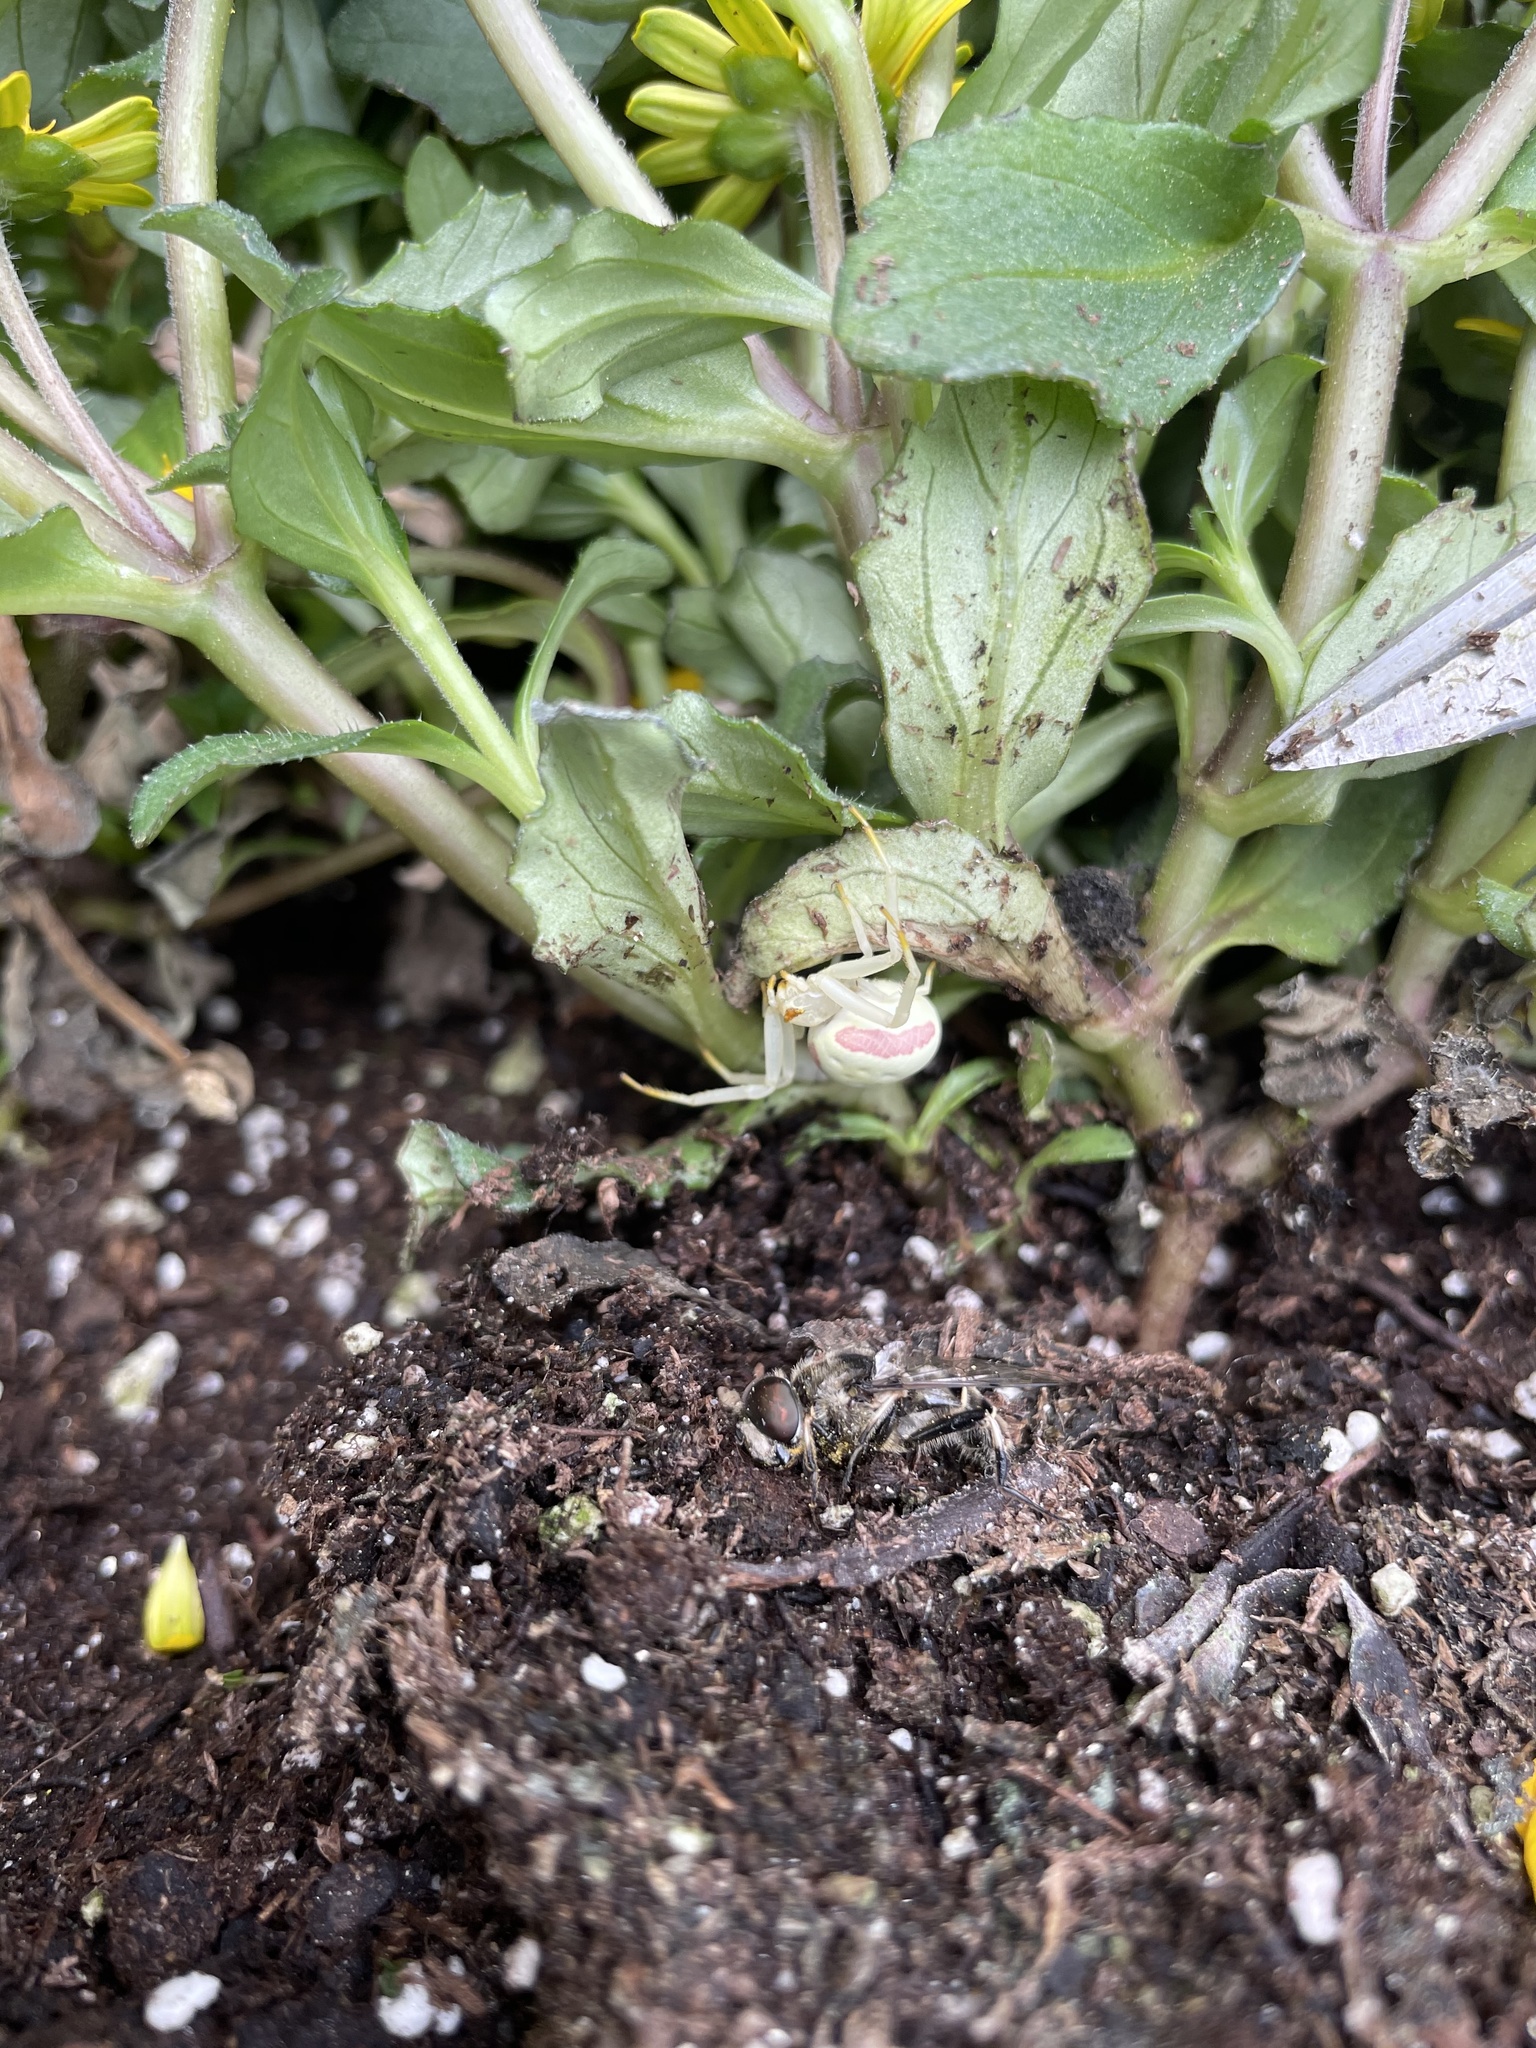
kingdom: Animalia
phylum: Arthropoda
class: Arachnida
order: Araneae
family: Thomisidae
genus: Misumena
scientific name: Misumena vatia
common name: Goldenrod crab spider
